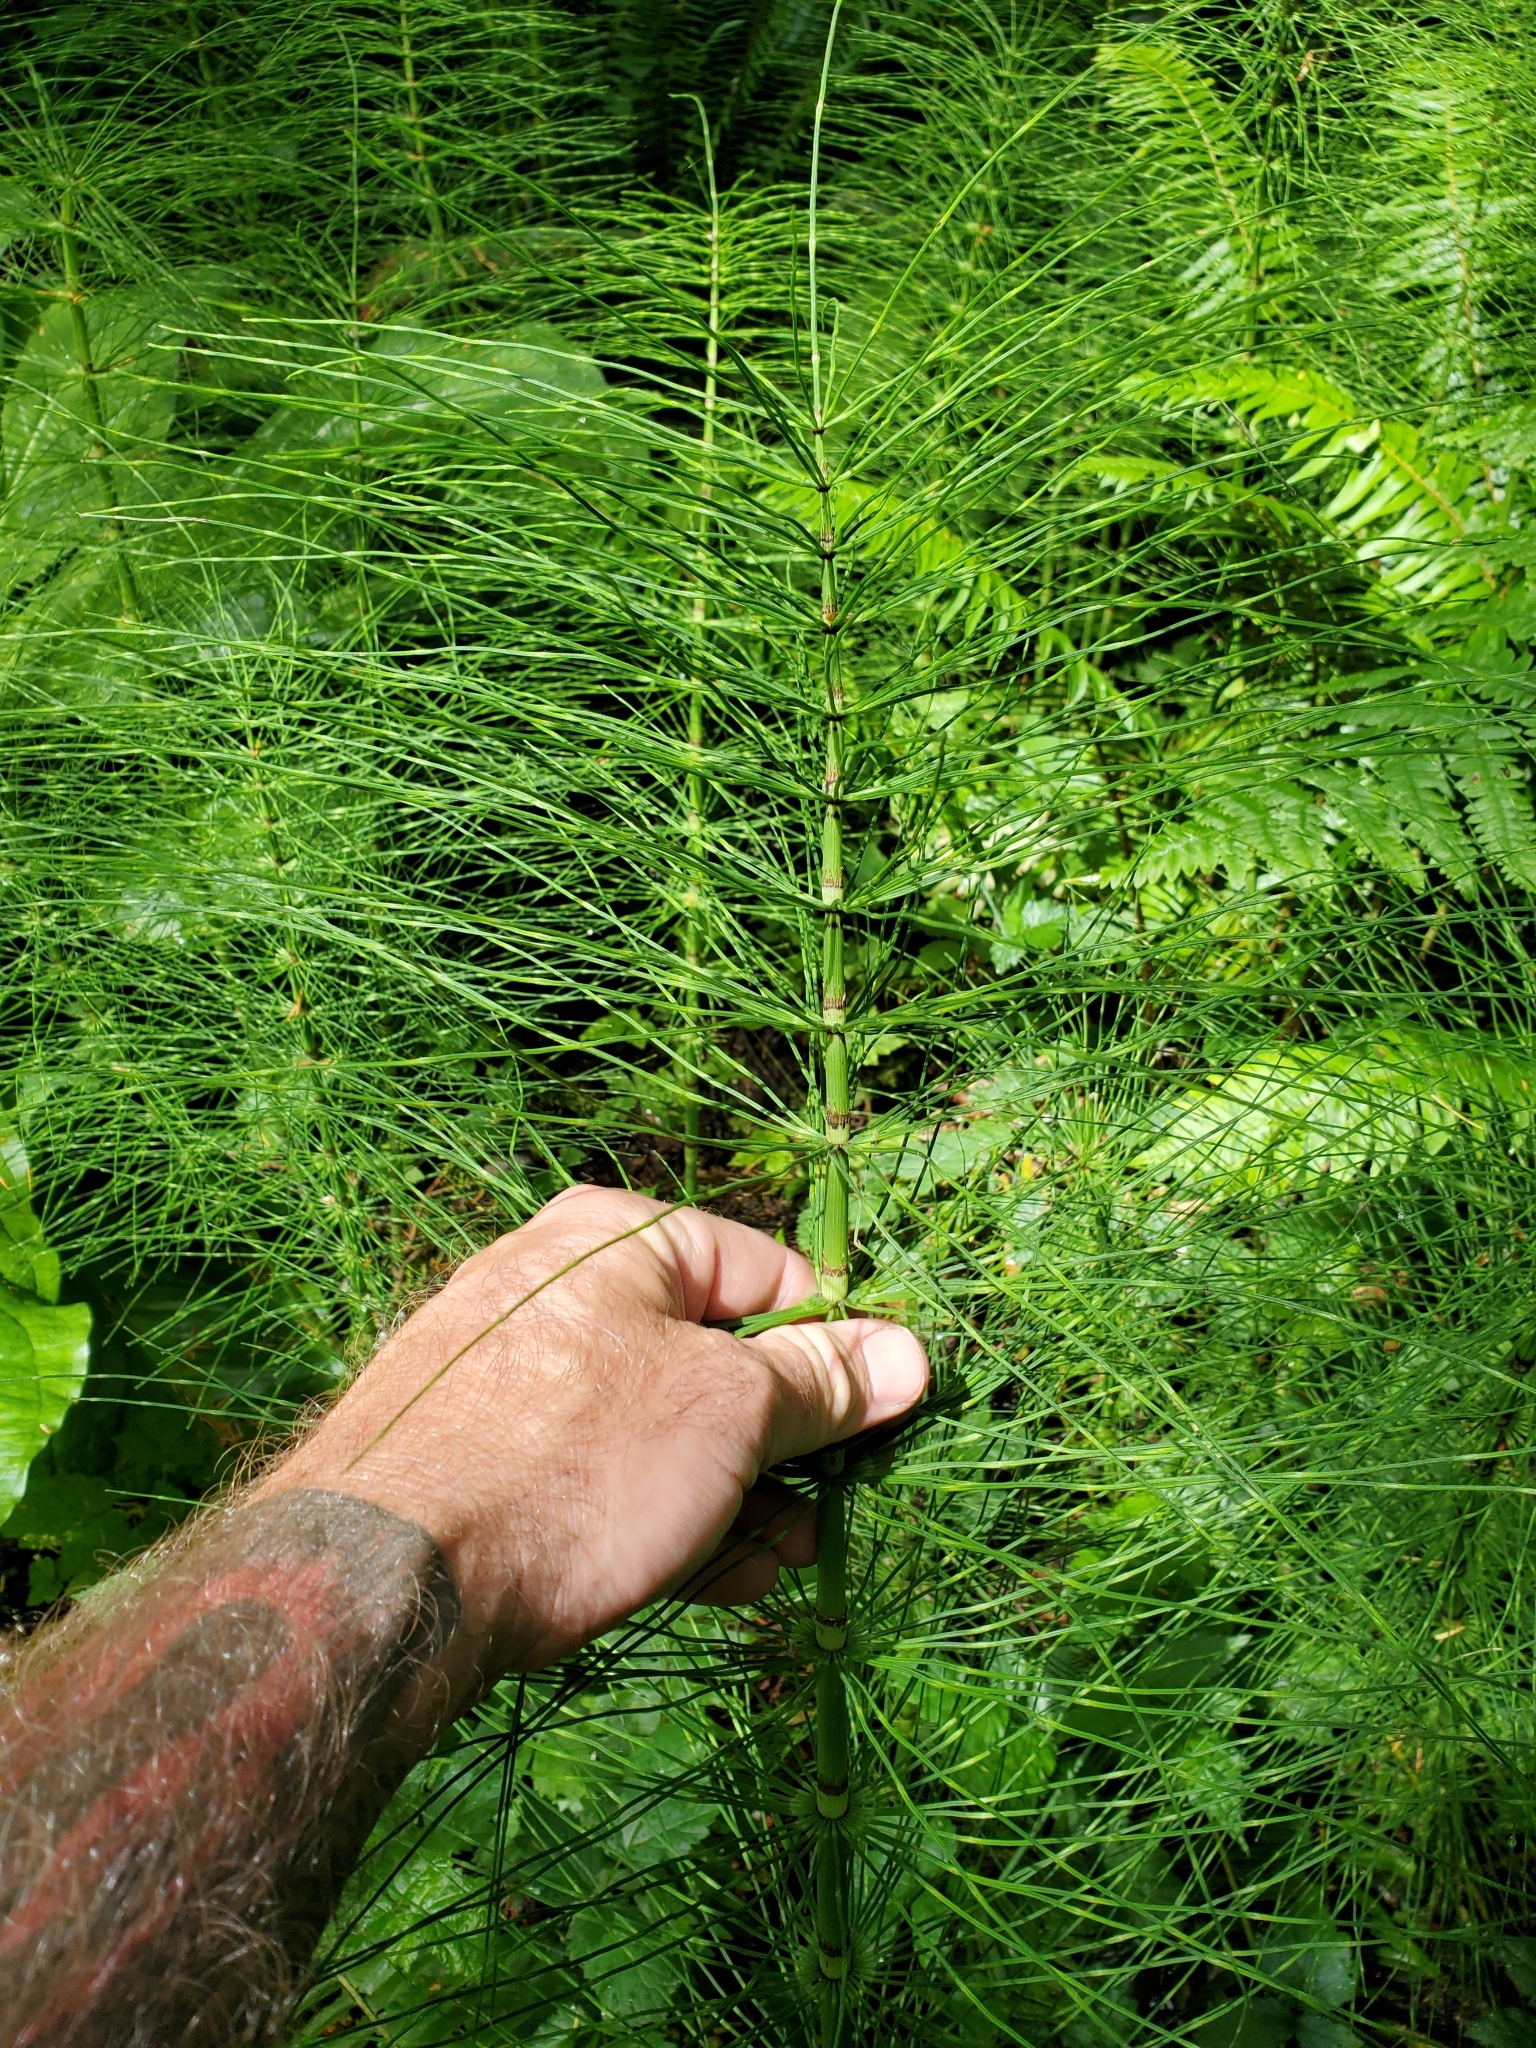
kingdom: Plantae
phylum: Tracheophyta
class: Polypodiopsida
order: Equisetales
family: Equisetaceae
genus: Equisetum
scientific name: Equisetum telmateia
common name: Great horsetail
